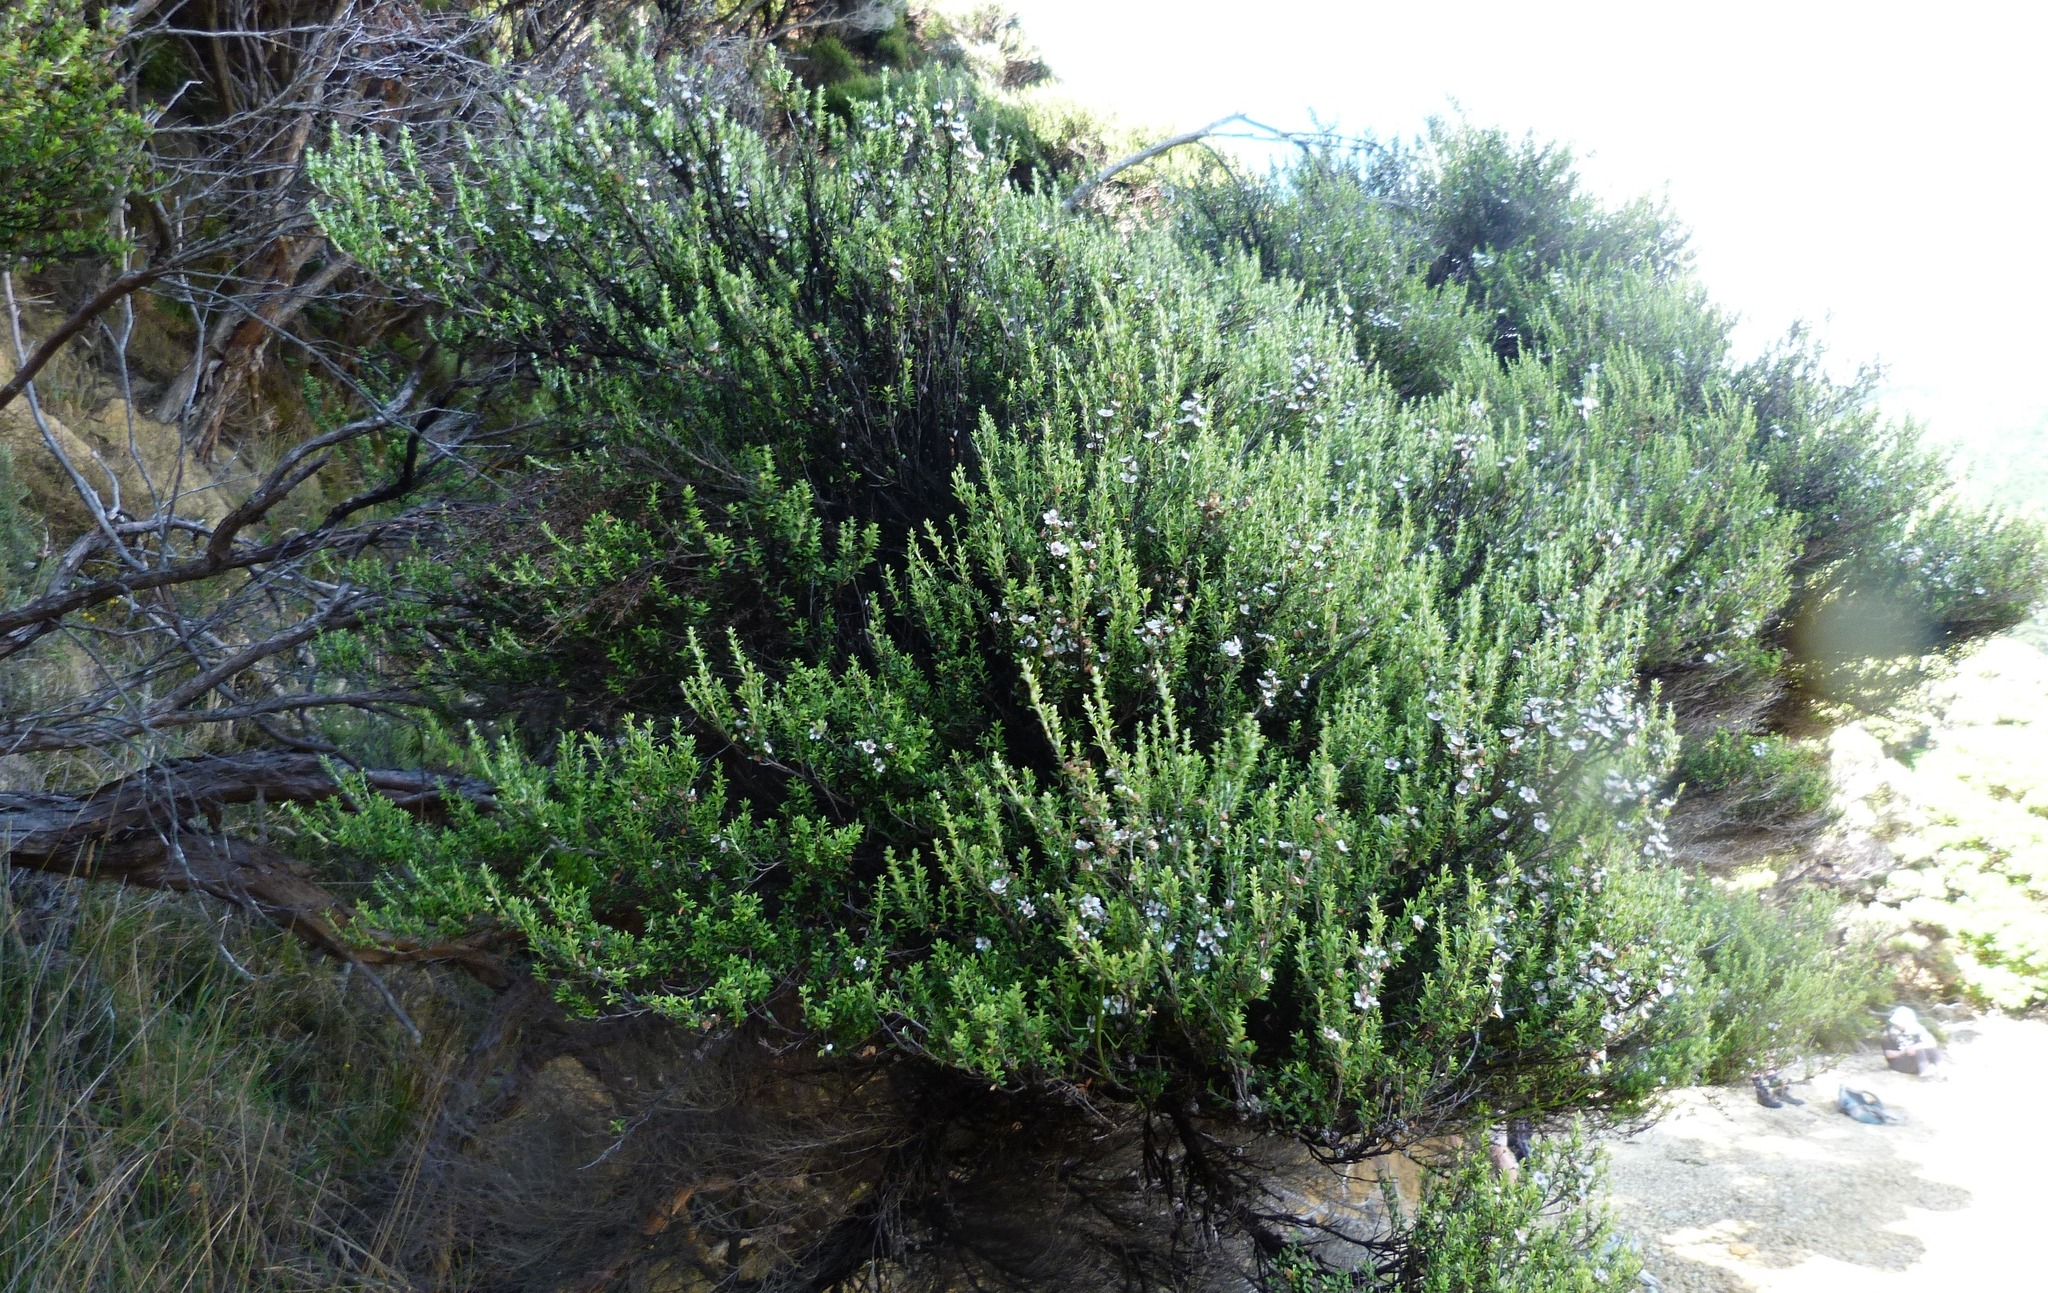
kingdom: Plantae
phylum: Tracheophyta
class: Magnoliopsida
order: Myrtales
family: Myrtaceae
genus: Leptospermum
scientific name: Leptospermum scoparium
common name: Broom tea-tree
